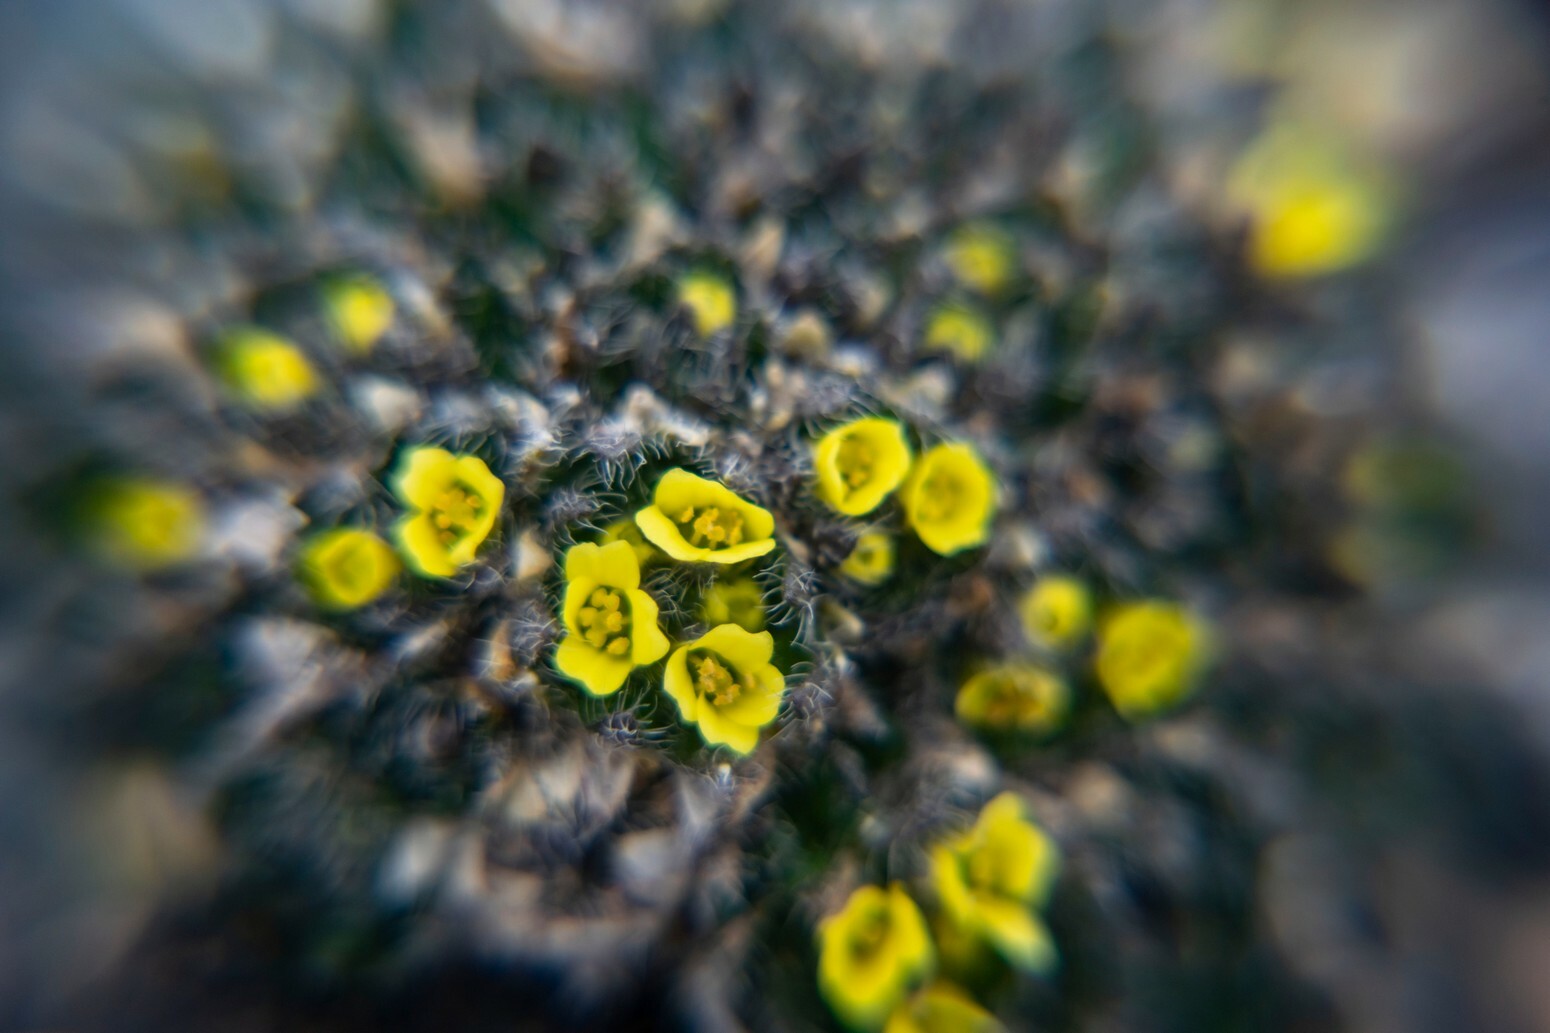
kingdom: Plantae
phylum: Tracheophyta
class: Magnoliopsida
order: Brassicales
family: Brassicaceae
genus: Draba
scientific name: Draba corymbosa
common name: Cushion whitlow-grass
